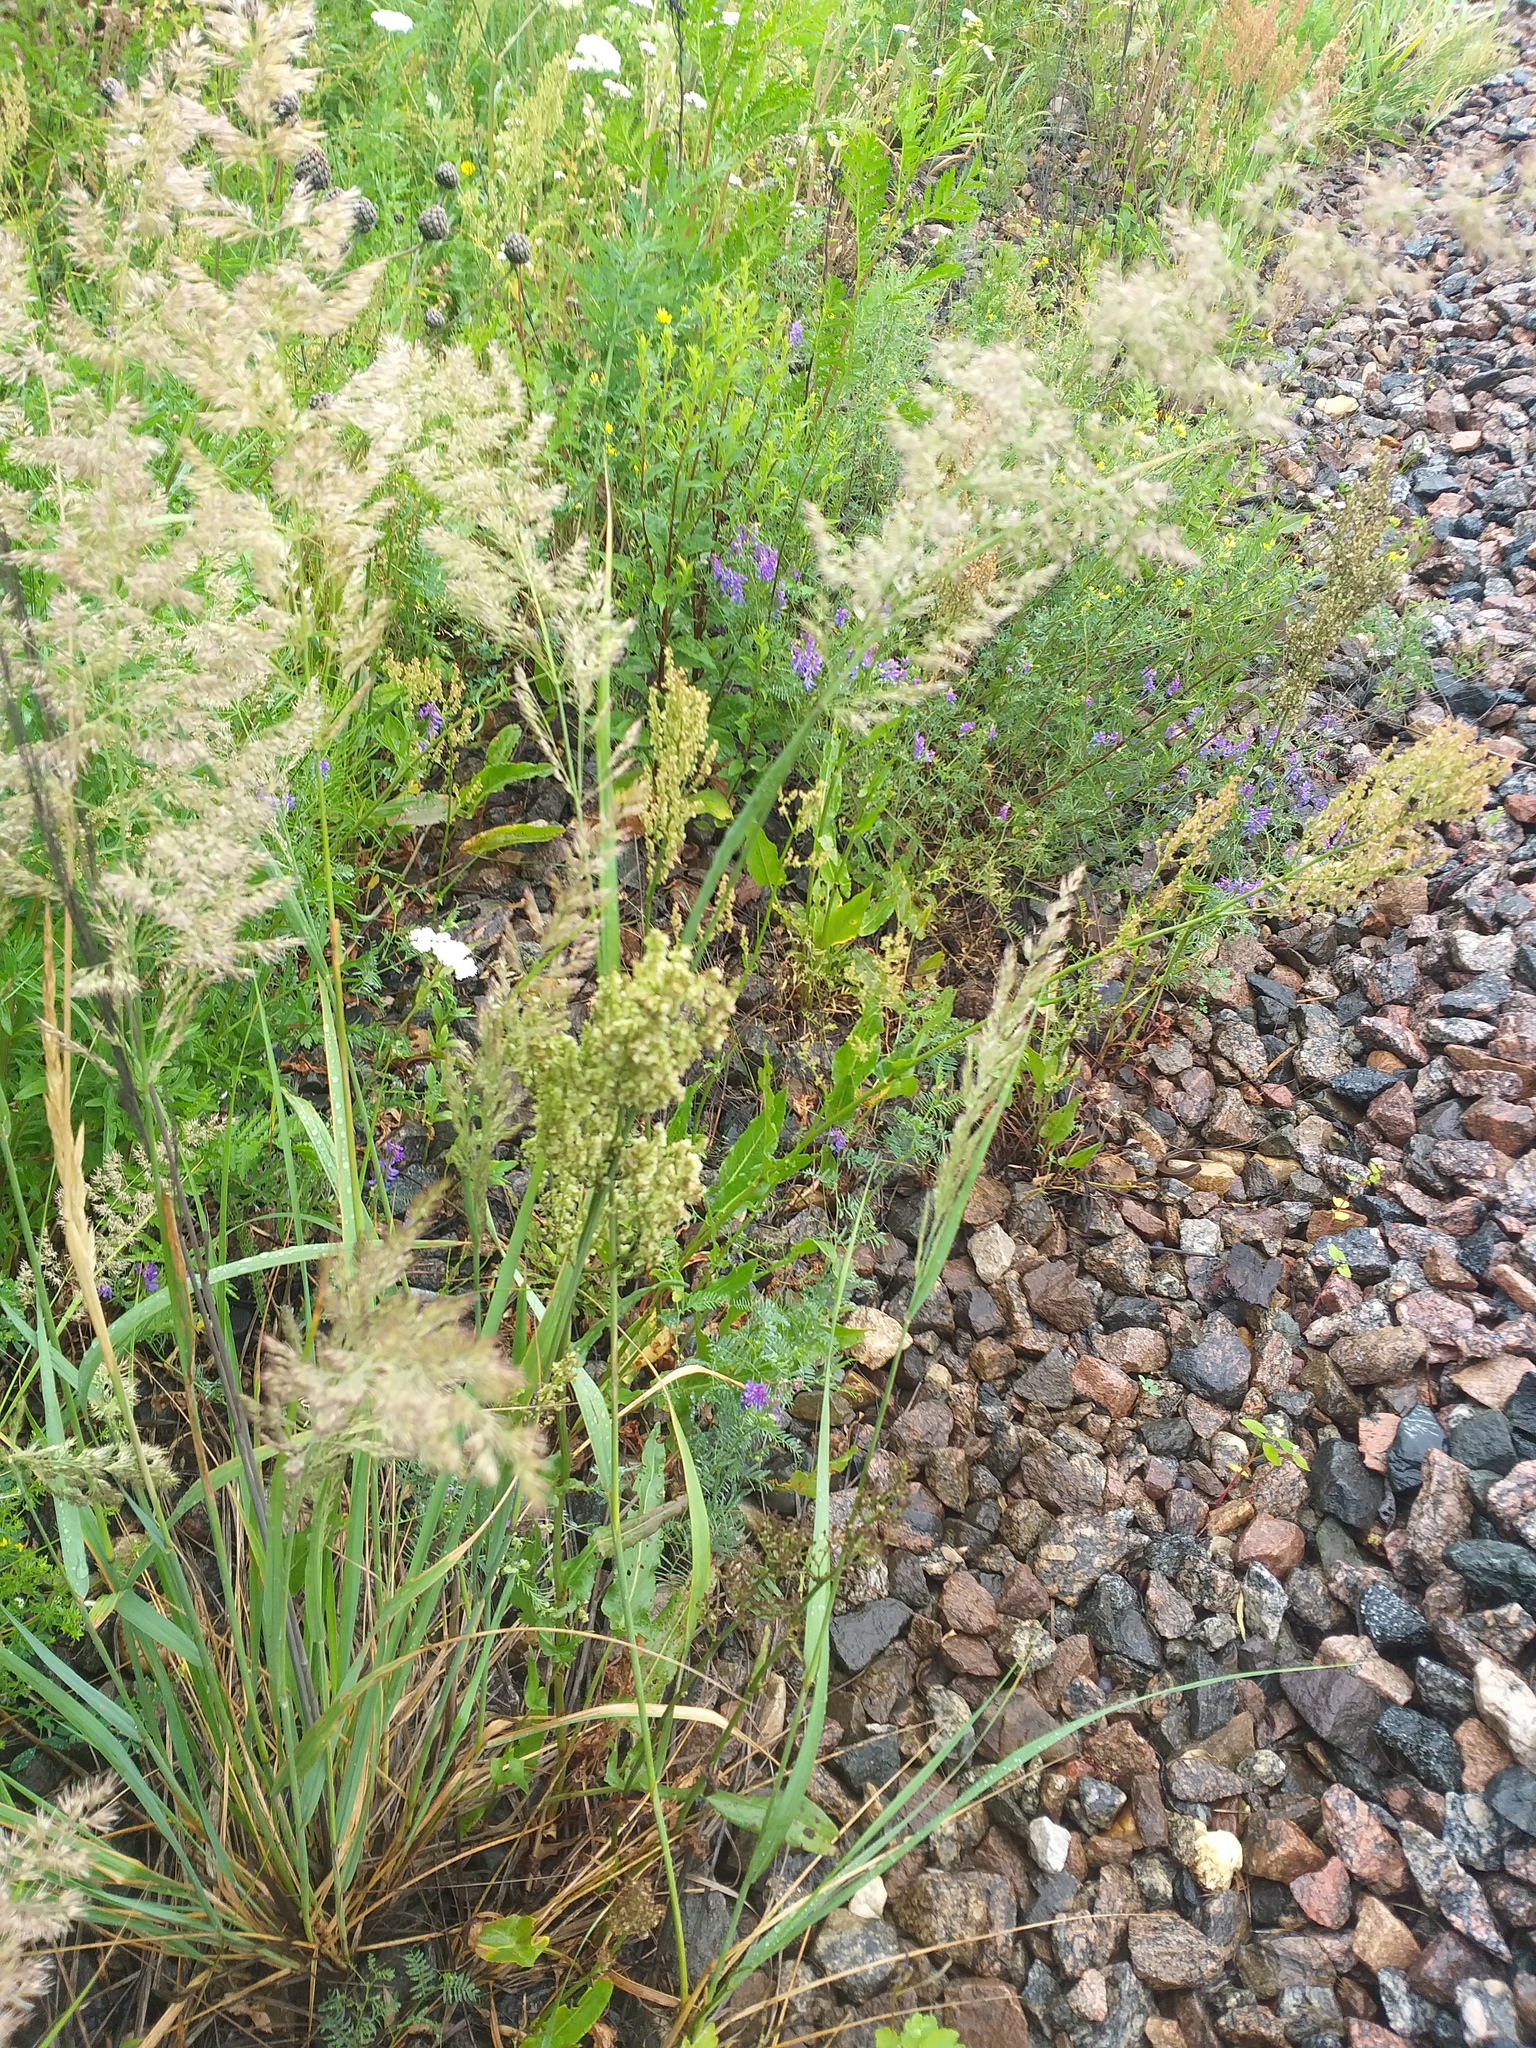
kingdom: Plantae
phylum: Tracheophyta
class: Magnoliopsida
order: Caryophyllales
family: Polygonaceae
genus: Rumex
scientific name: Rumex thyrsiflorus
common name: Garden sorrel
